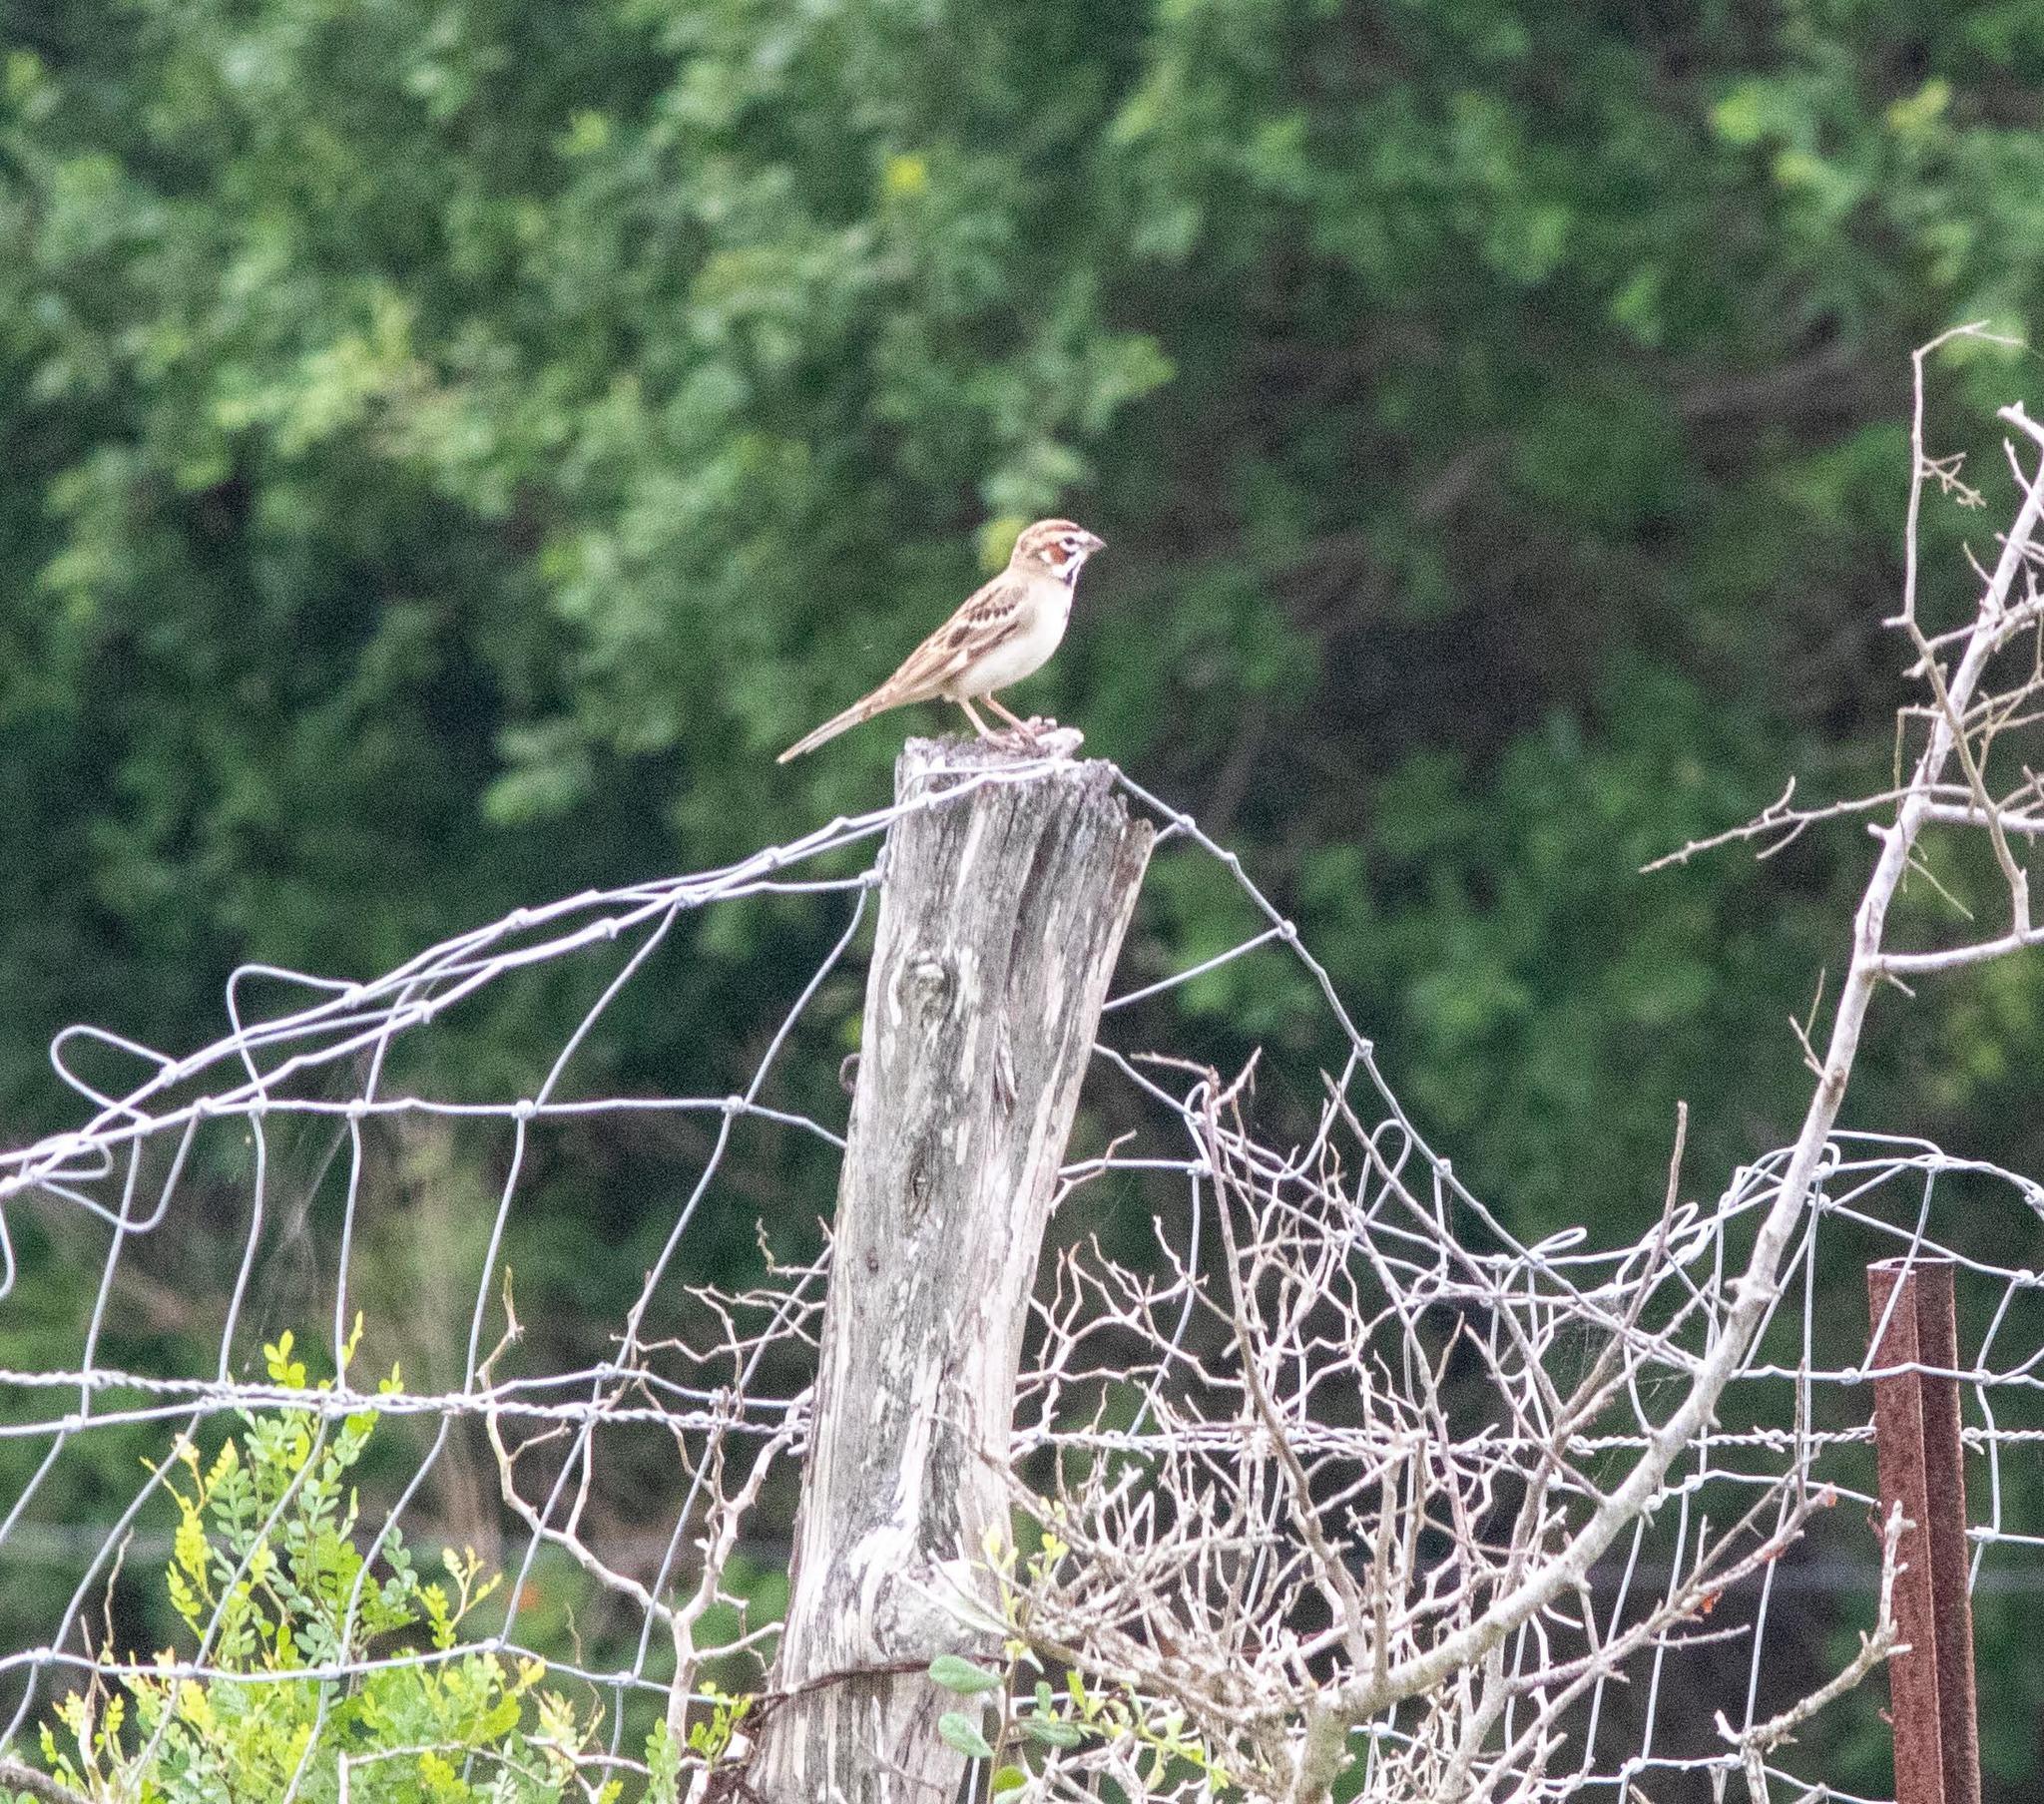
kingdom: Animalia
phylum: Chordata
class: Aves
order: Passeriformes
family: Passerellidae
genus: Chondestes
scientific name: Chondestes grammacus
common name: Lark sparrow
